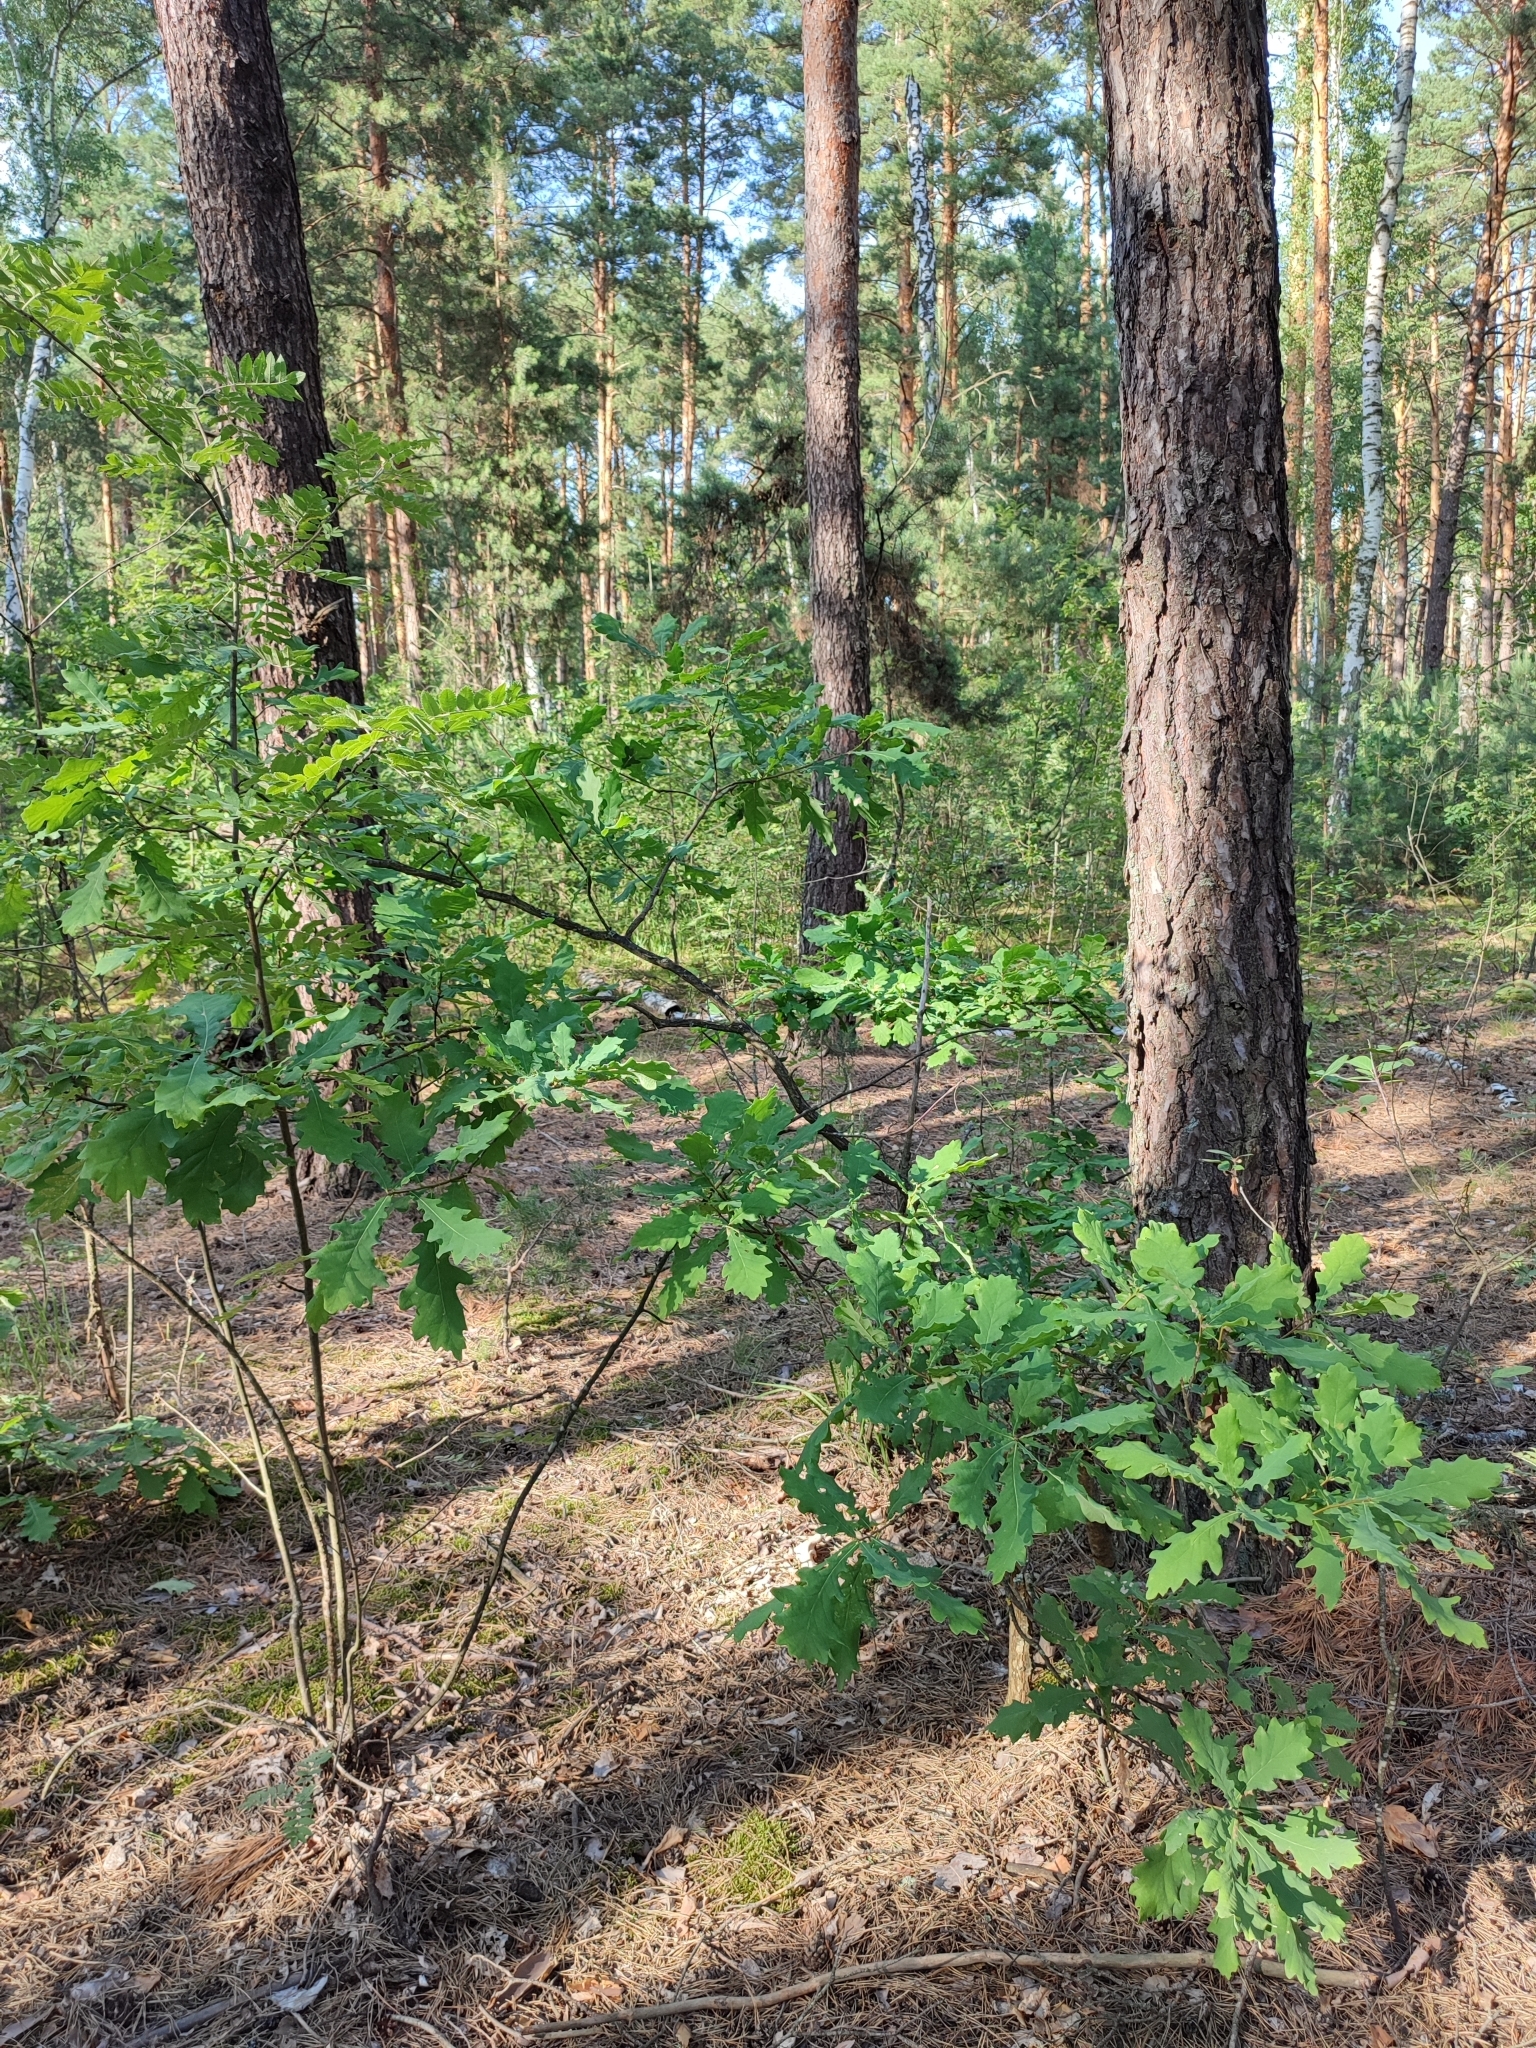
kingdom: Plantae
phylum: Tracheophyta
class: Magnoliopsida
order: Fagales
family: Fagaceae
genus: Quercus
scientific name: Quercus robur
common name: Pedunculate oak
